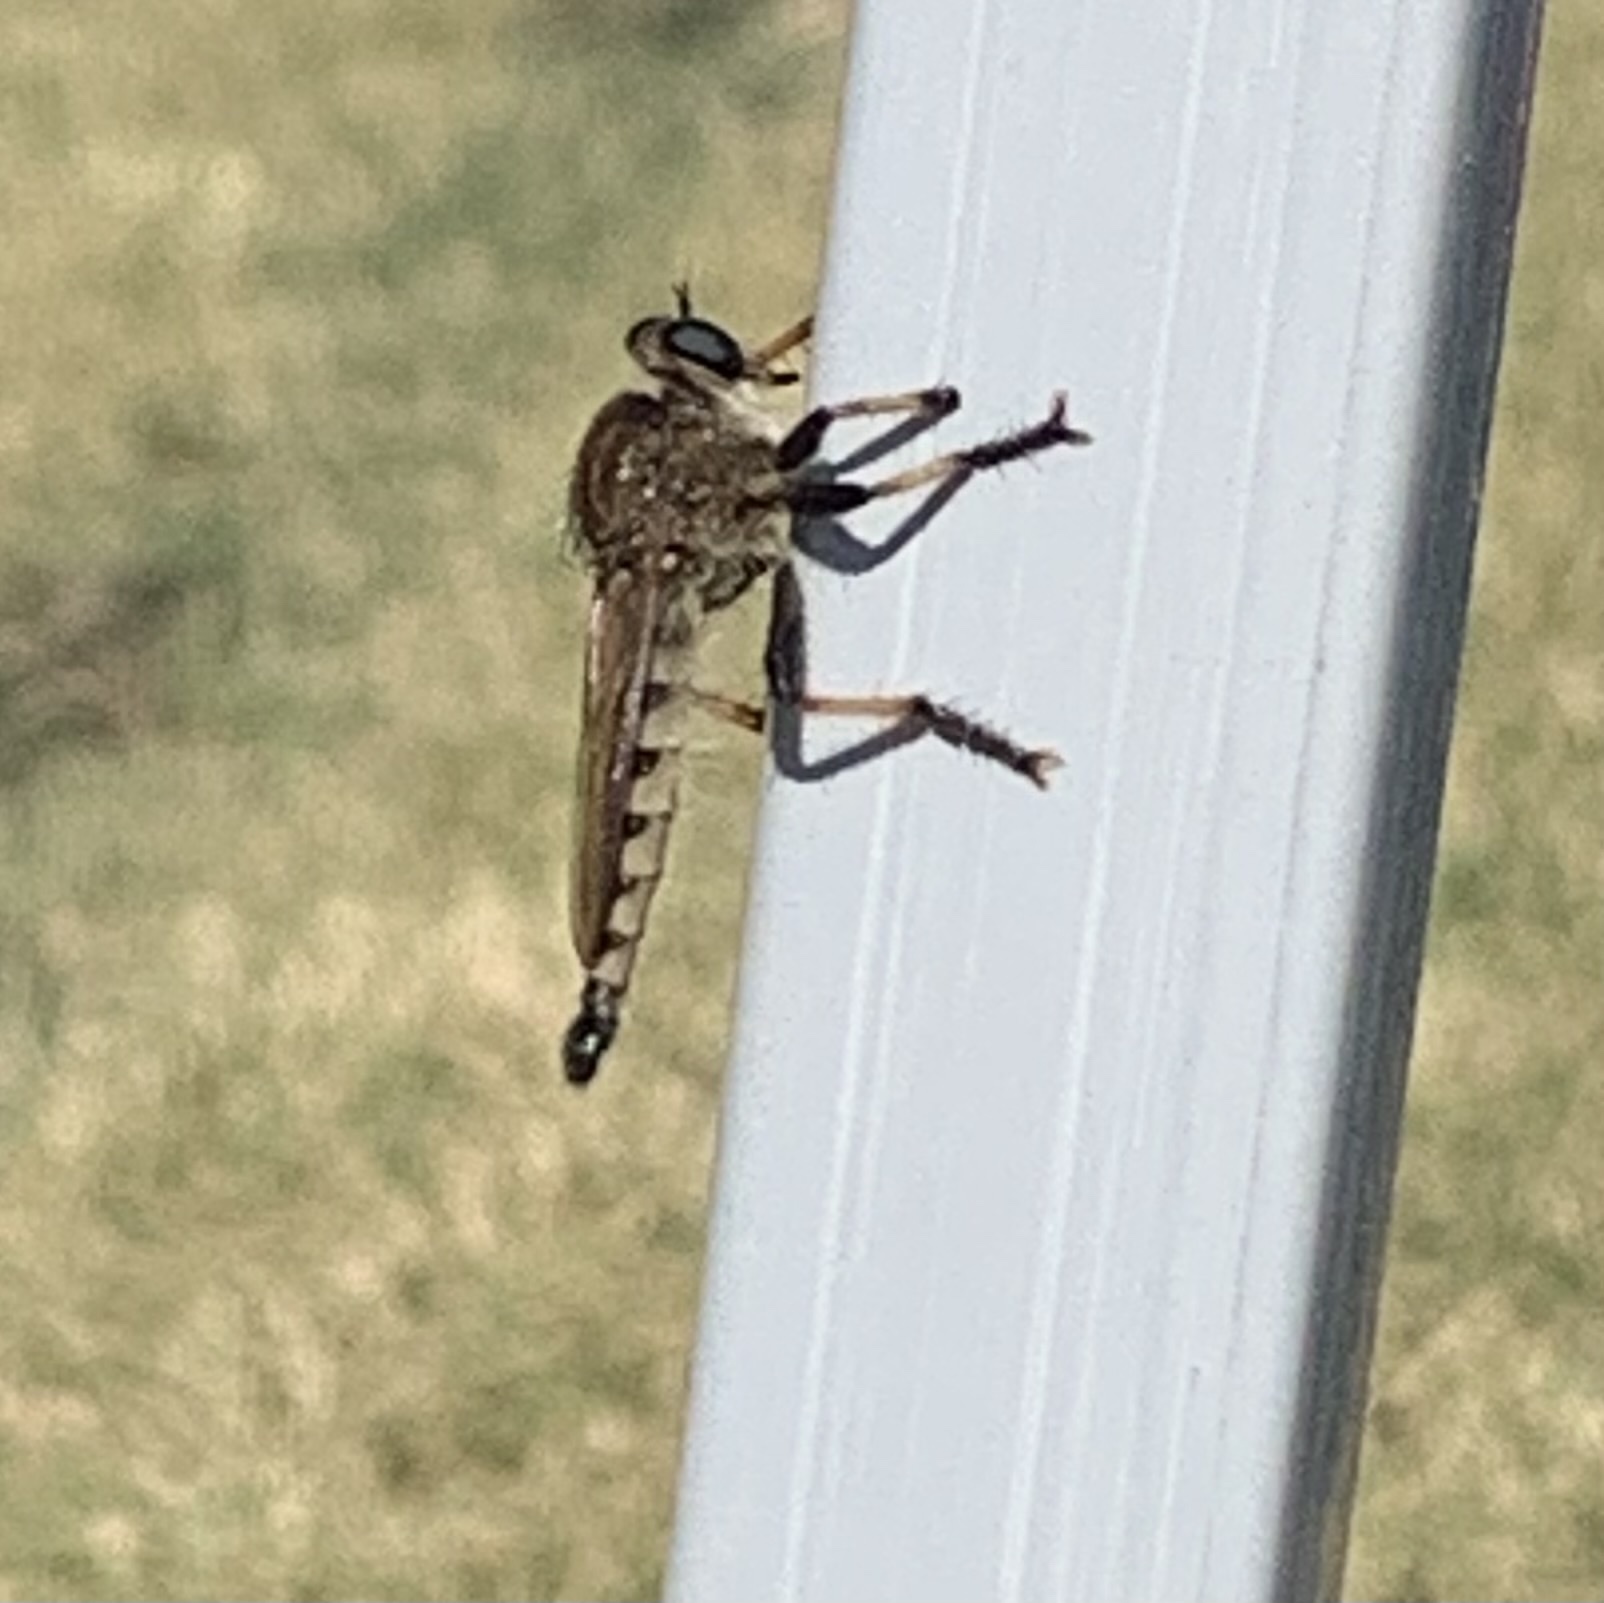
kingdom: Animalia
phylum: Arthropoda
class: Insecta
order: Diptera
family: Asilidae
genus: Promachus
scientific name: Promachus rufipes
